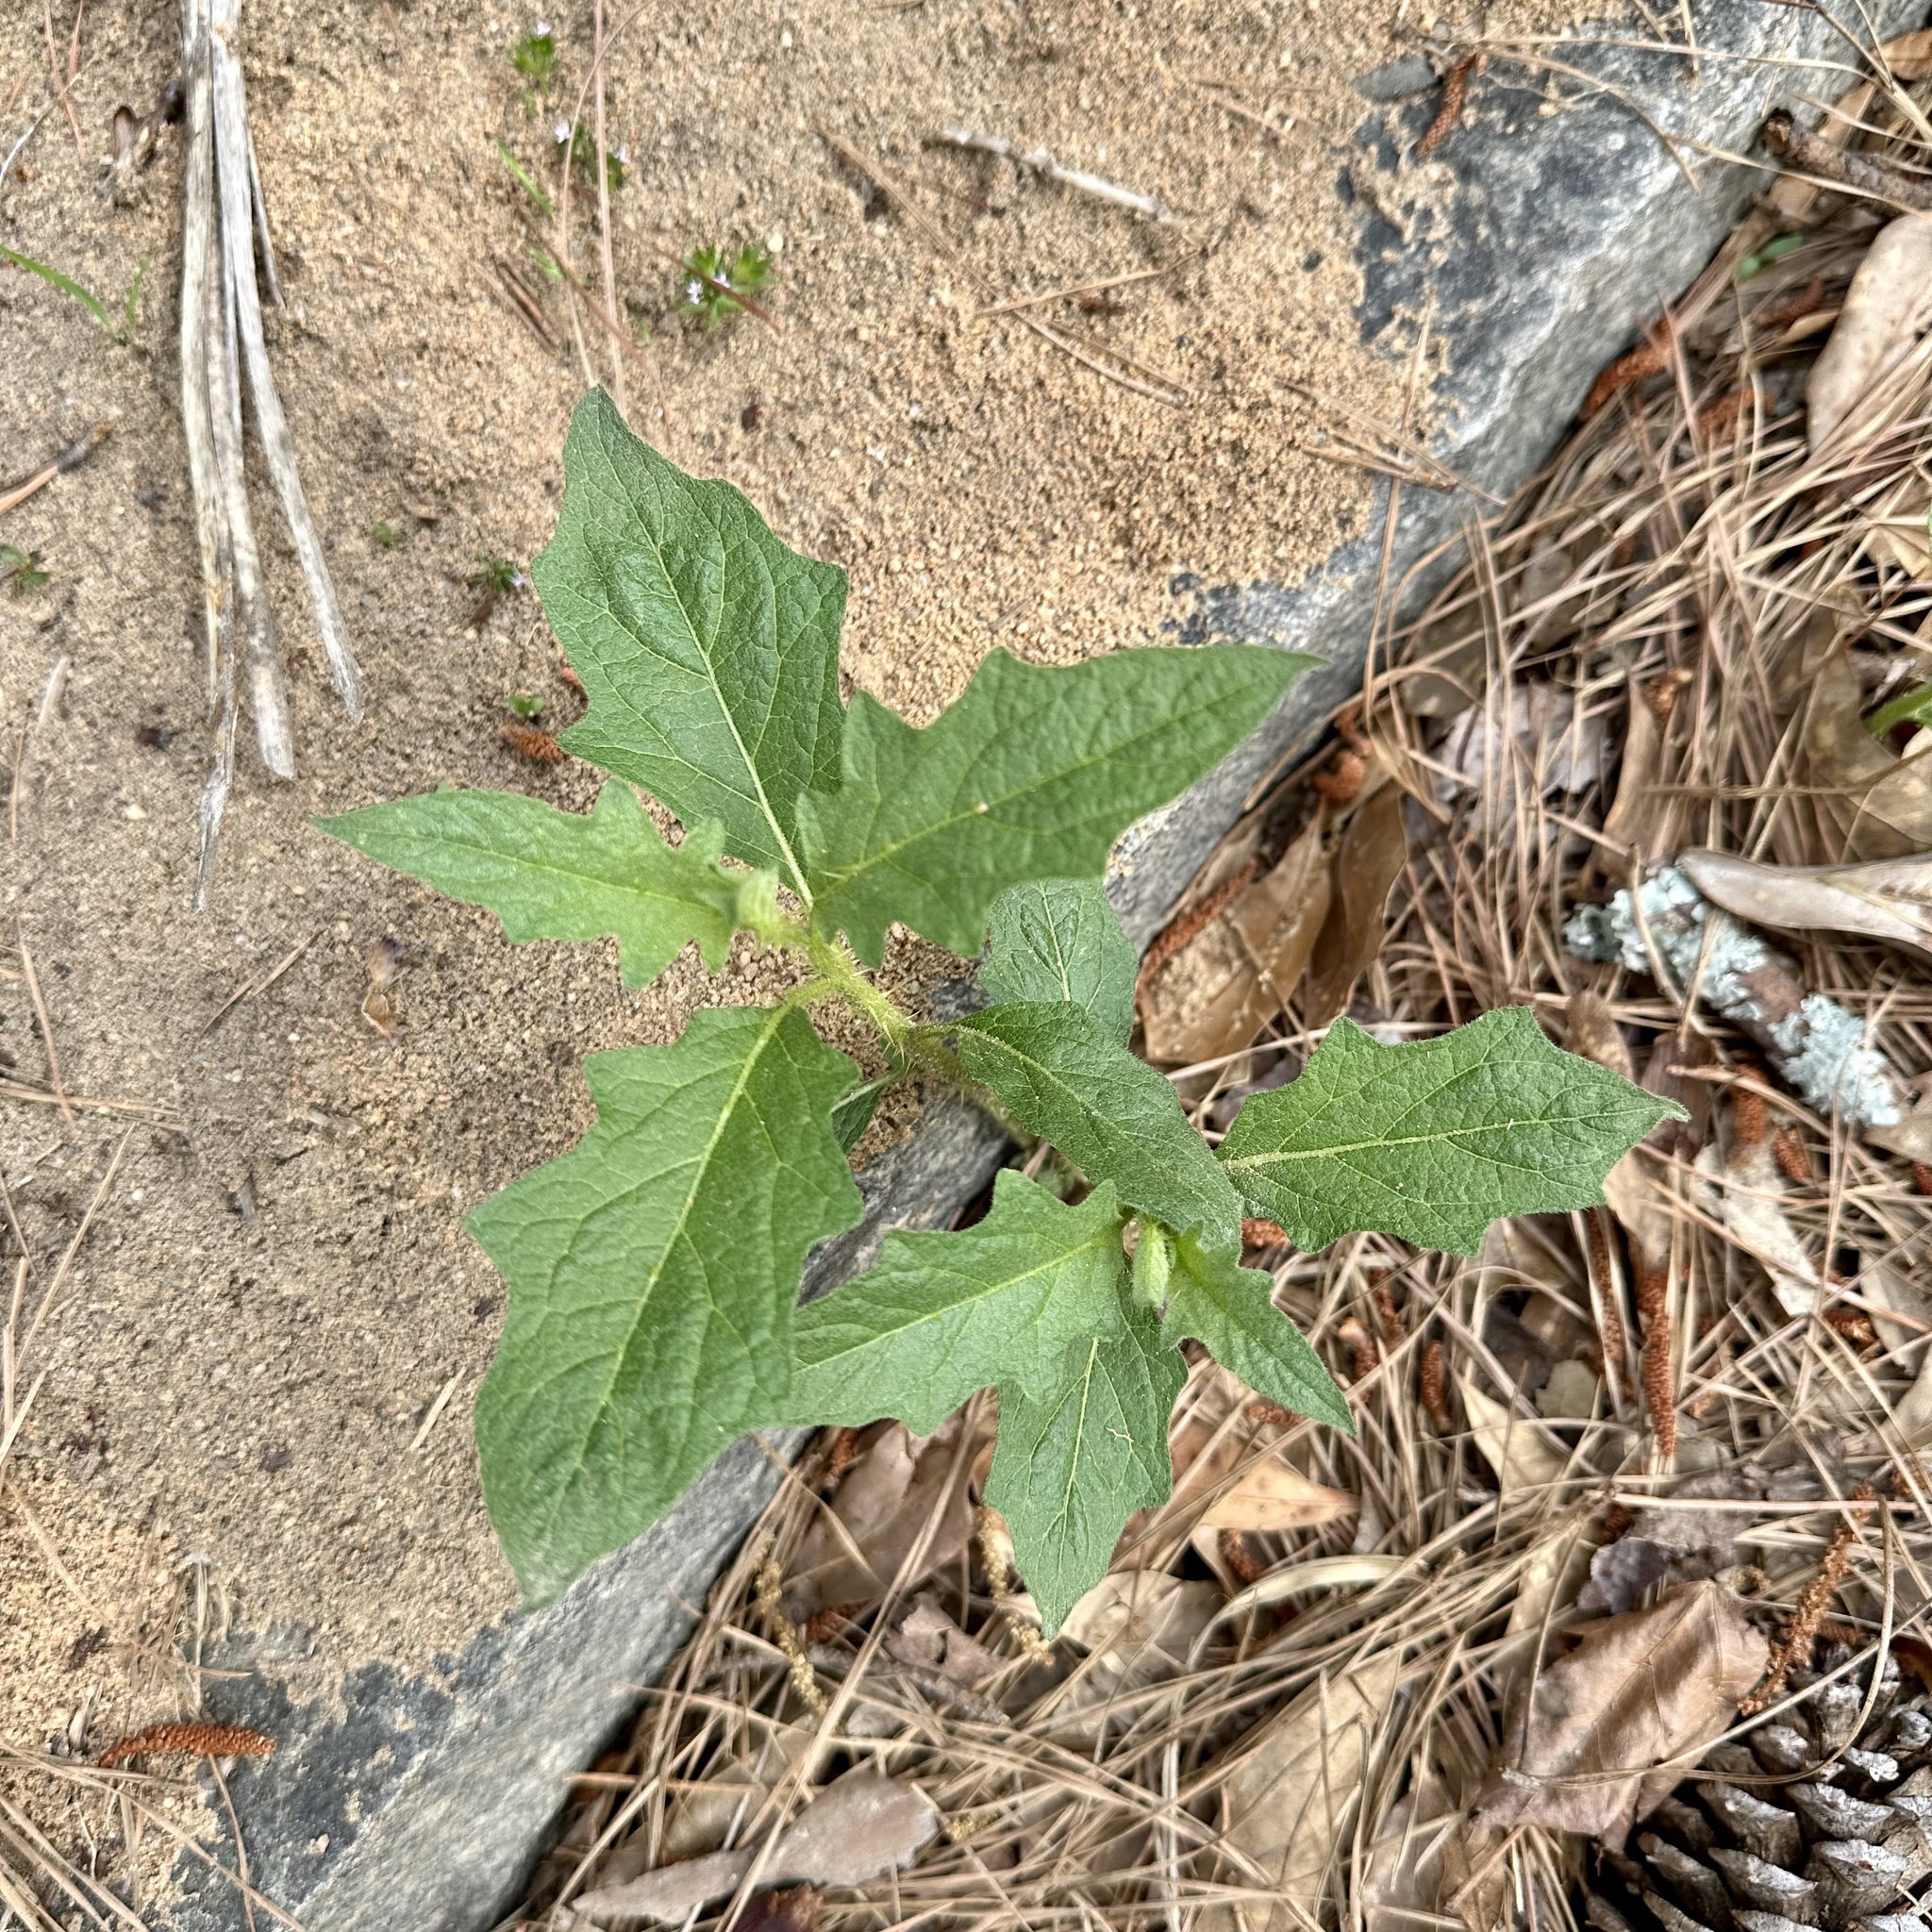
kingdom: Plantae
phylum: Tracheophyta
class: Magnoliopsida
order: Solanales
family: Solanaceae
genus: Solanum
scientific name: Solanum carolinense
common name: Horse-nettle
